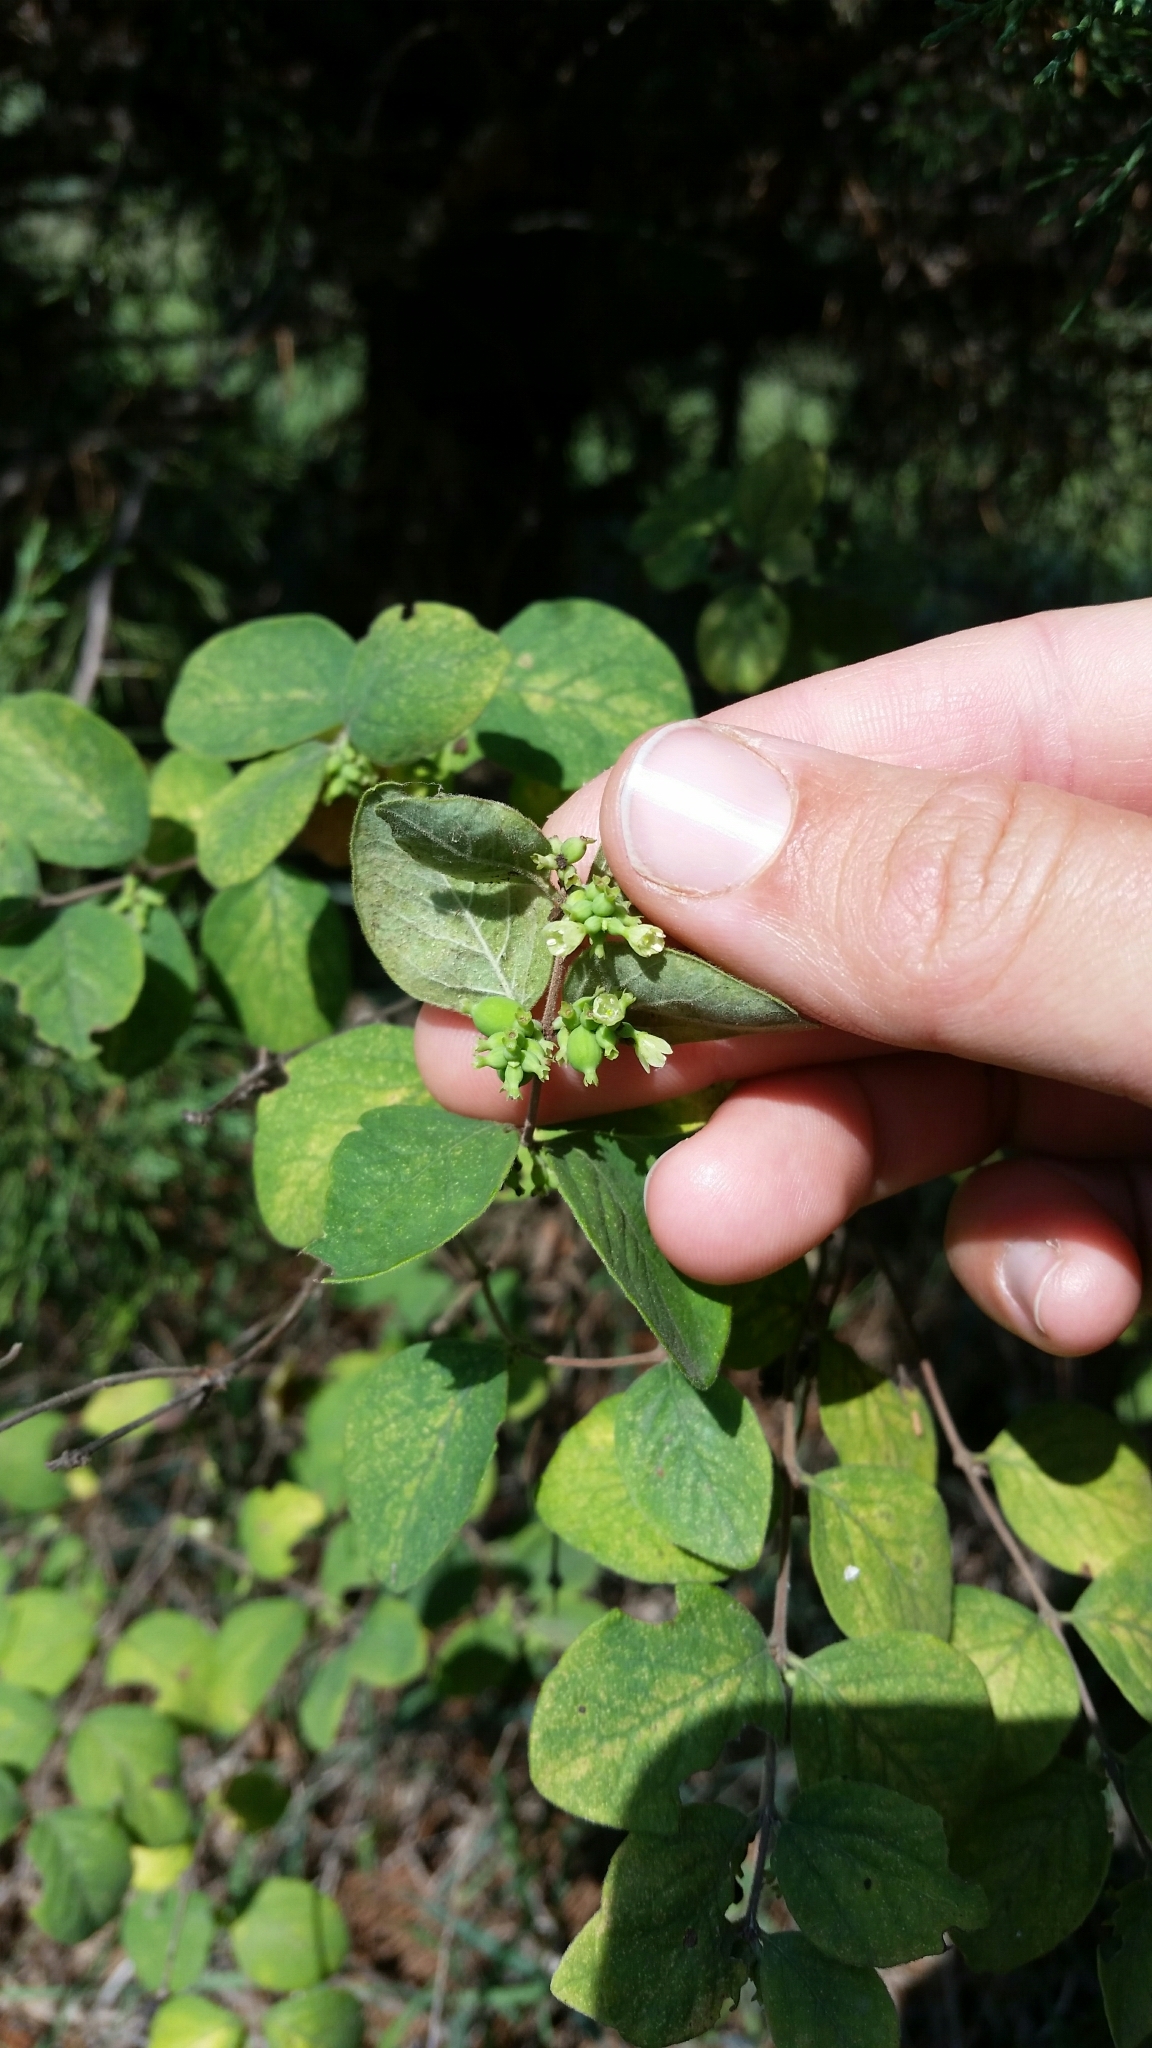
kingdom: Plantae
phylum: Tracheophyta
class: Magnoliopsida
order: Dipsacales
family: Caprifoliaceae
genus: Symphoricarpos
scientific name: Symphoricarpos orbiculatus
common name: Coralberry
